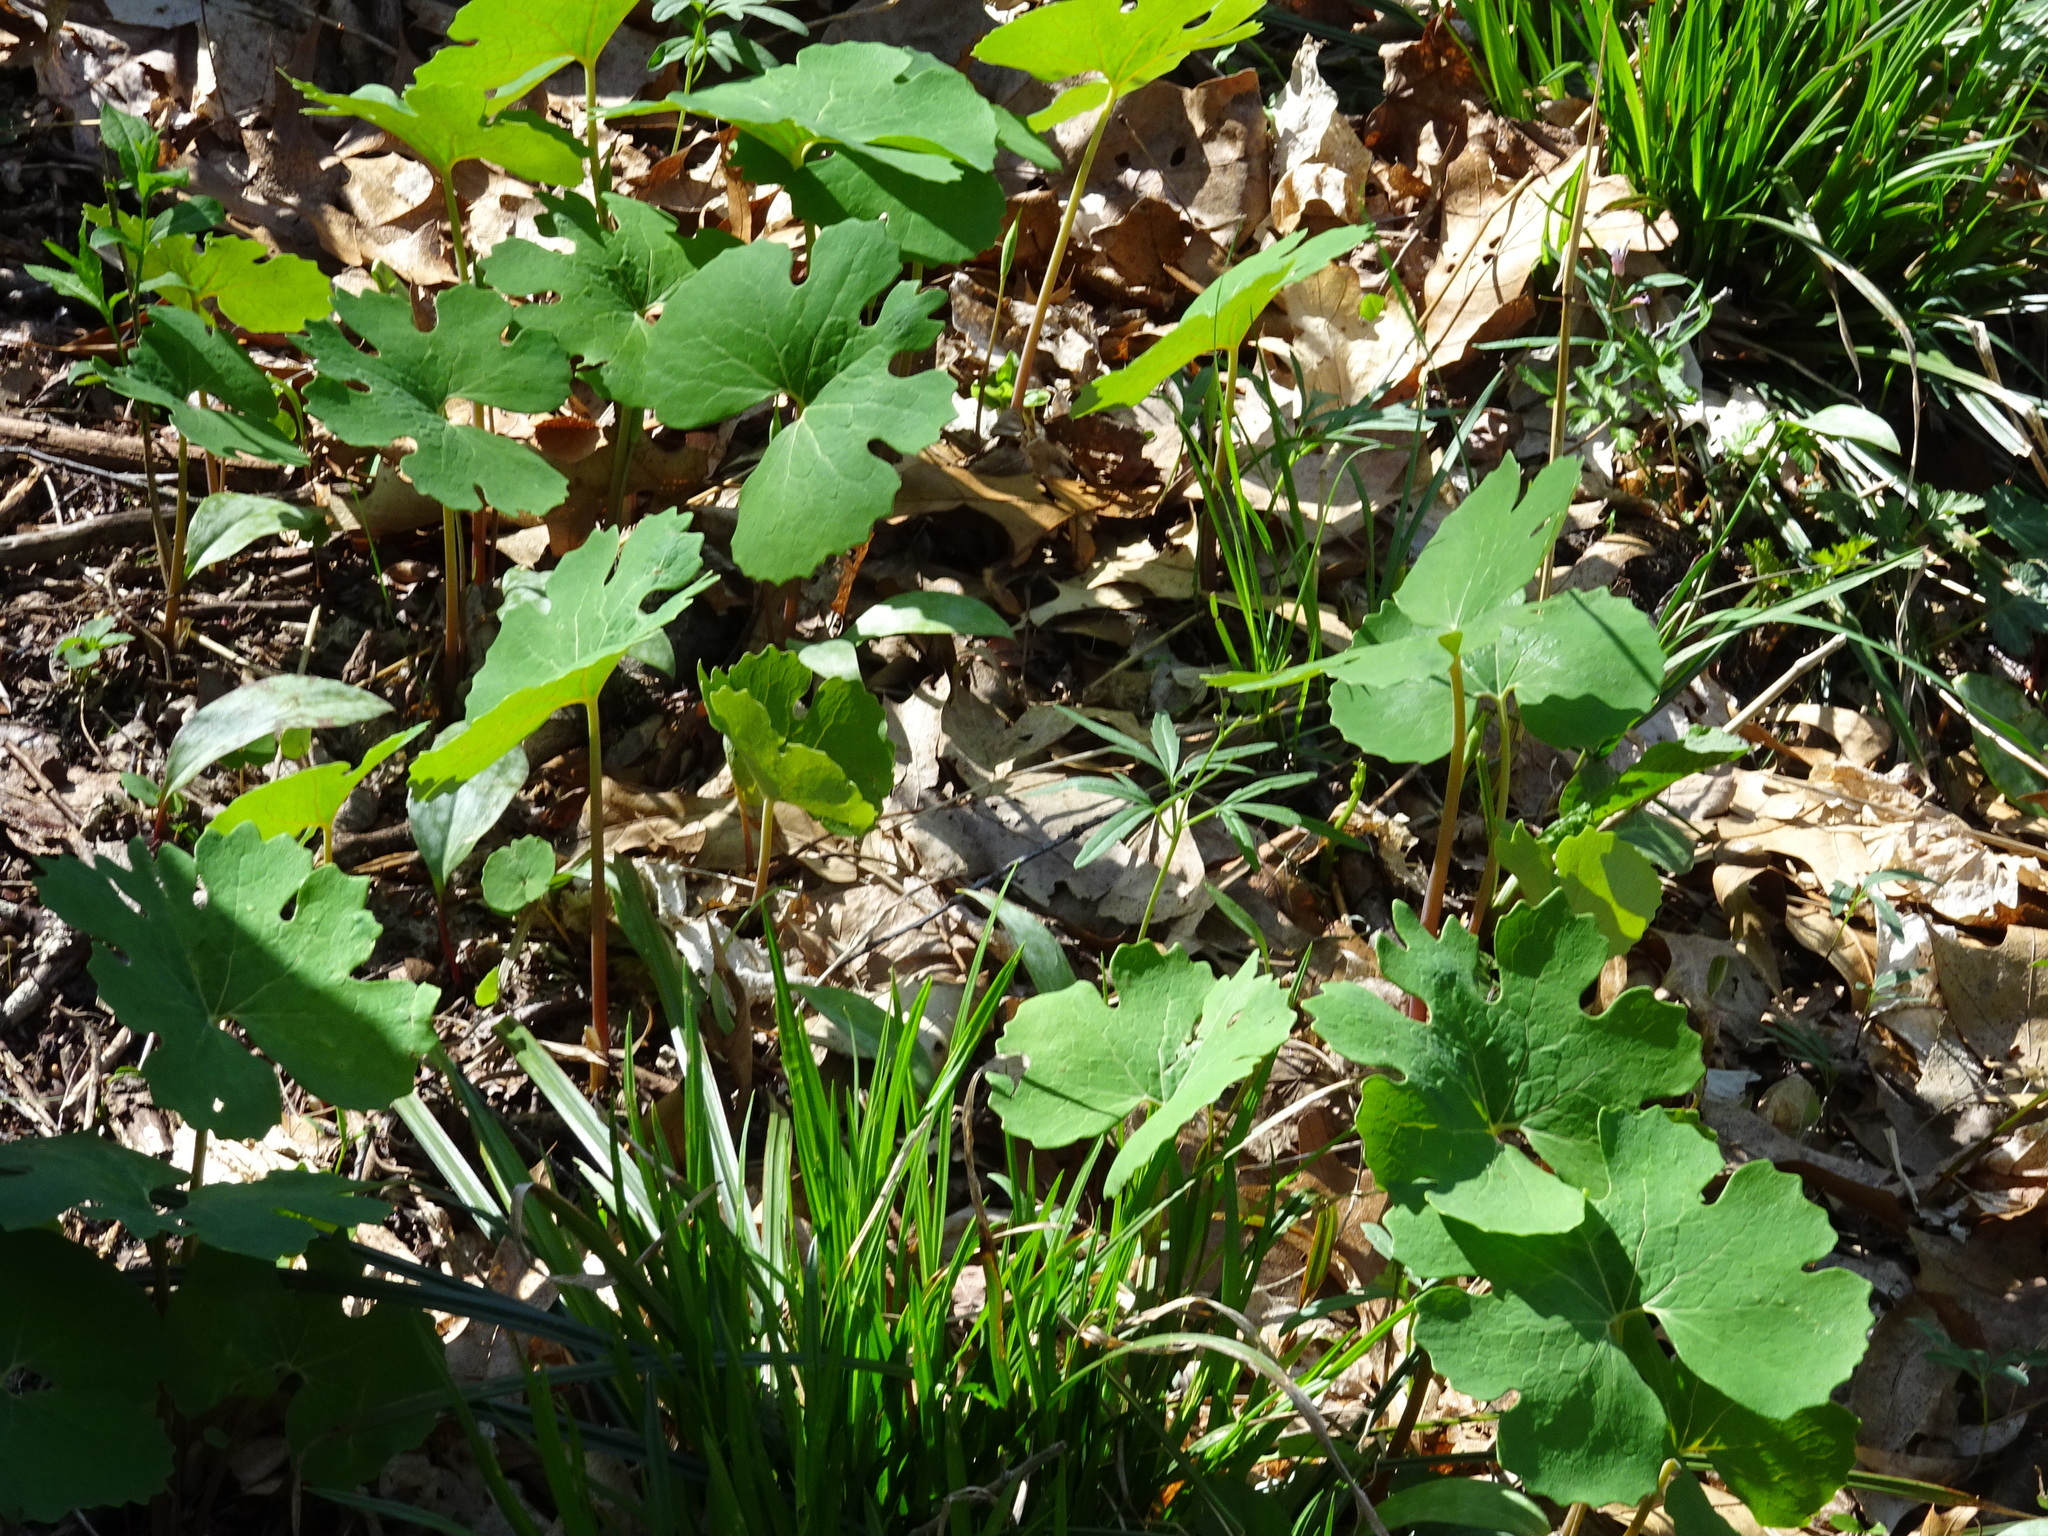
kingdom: Plantae
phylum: Tracheophyta
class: Magnoliopsida
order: Ranunculales
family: Papaveraceae
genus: Sanguinaria
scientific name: Sanguinaria canadensis
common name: Bloodroot
